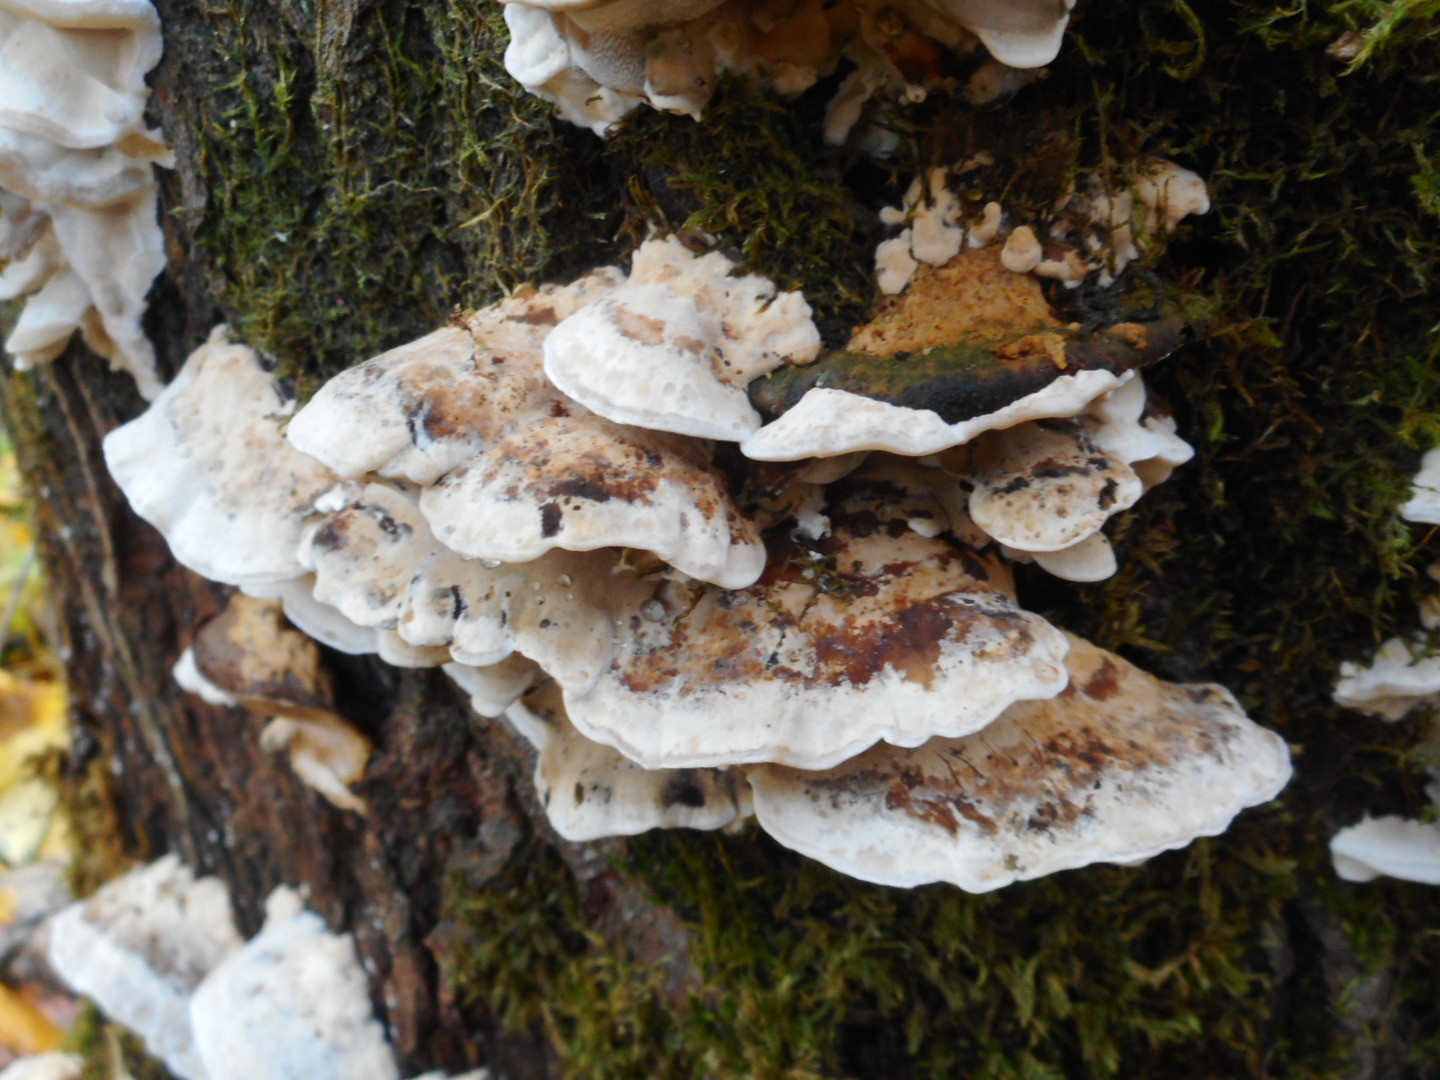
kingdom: Fungi
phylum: Basidiomycota
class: Agaricomycetes
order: Polyporales
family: Phanerochaetaceae
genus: Bjerkandera
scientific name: Bjerkandera fumosa
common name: Big smoky bracket
